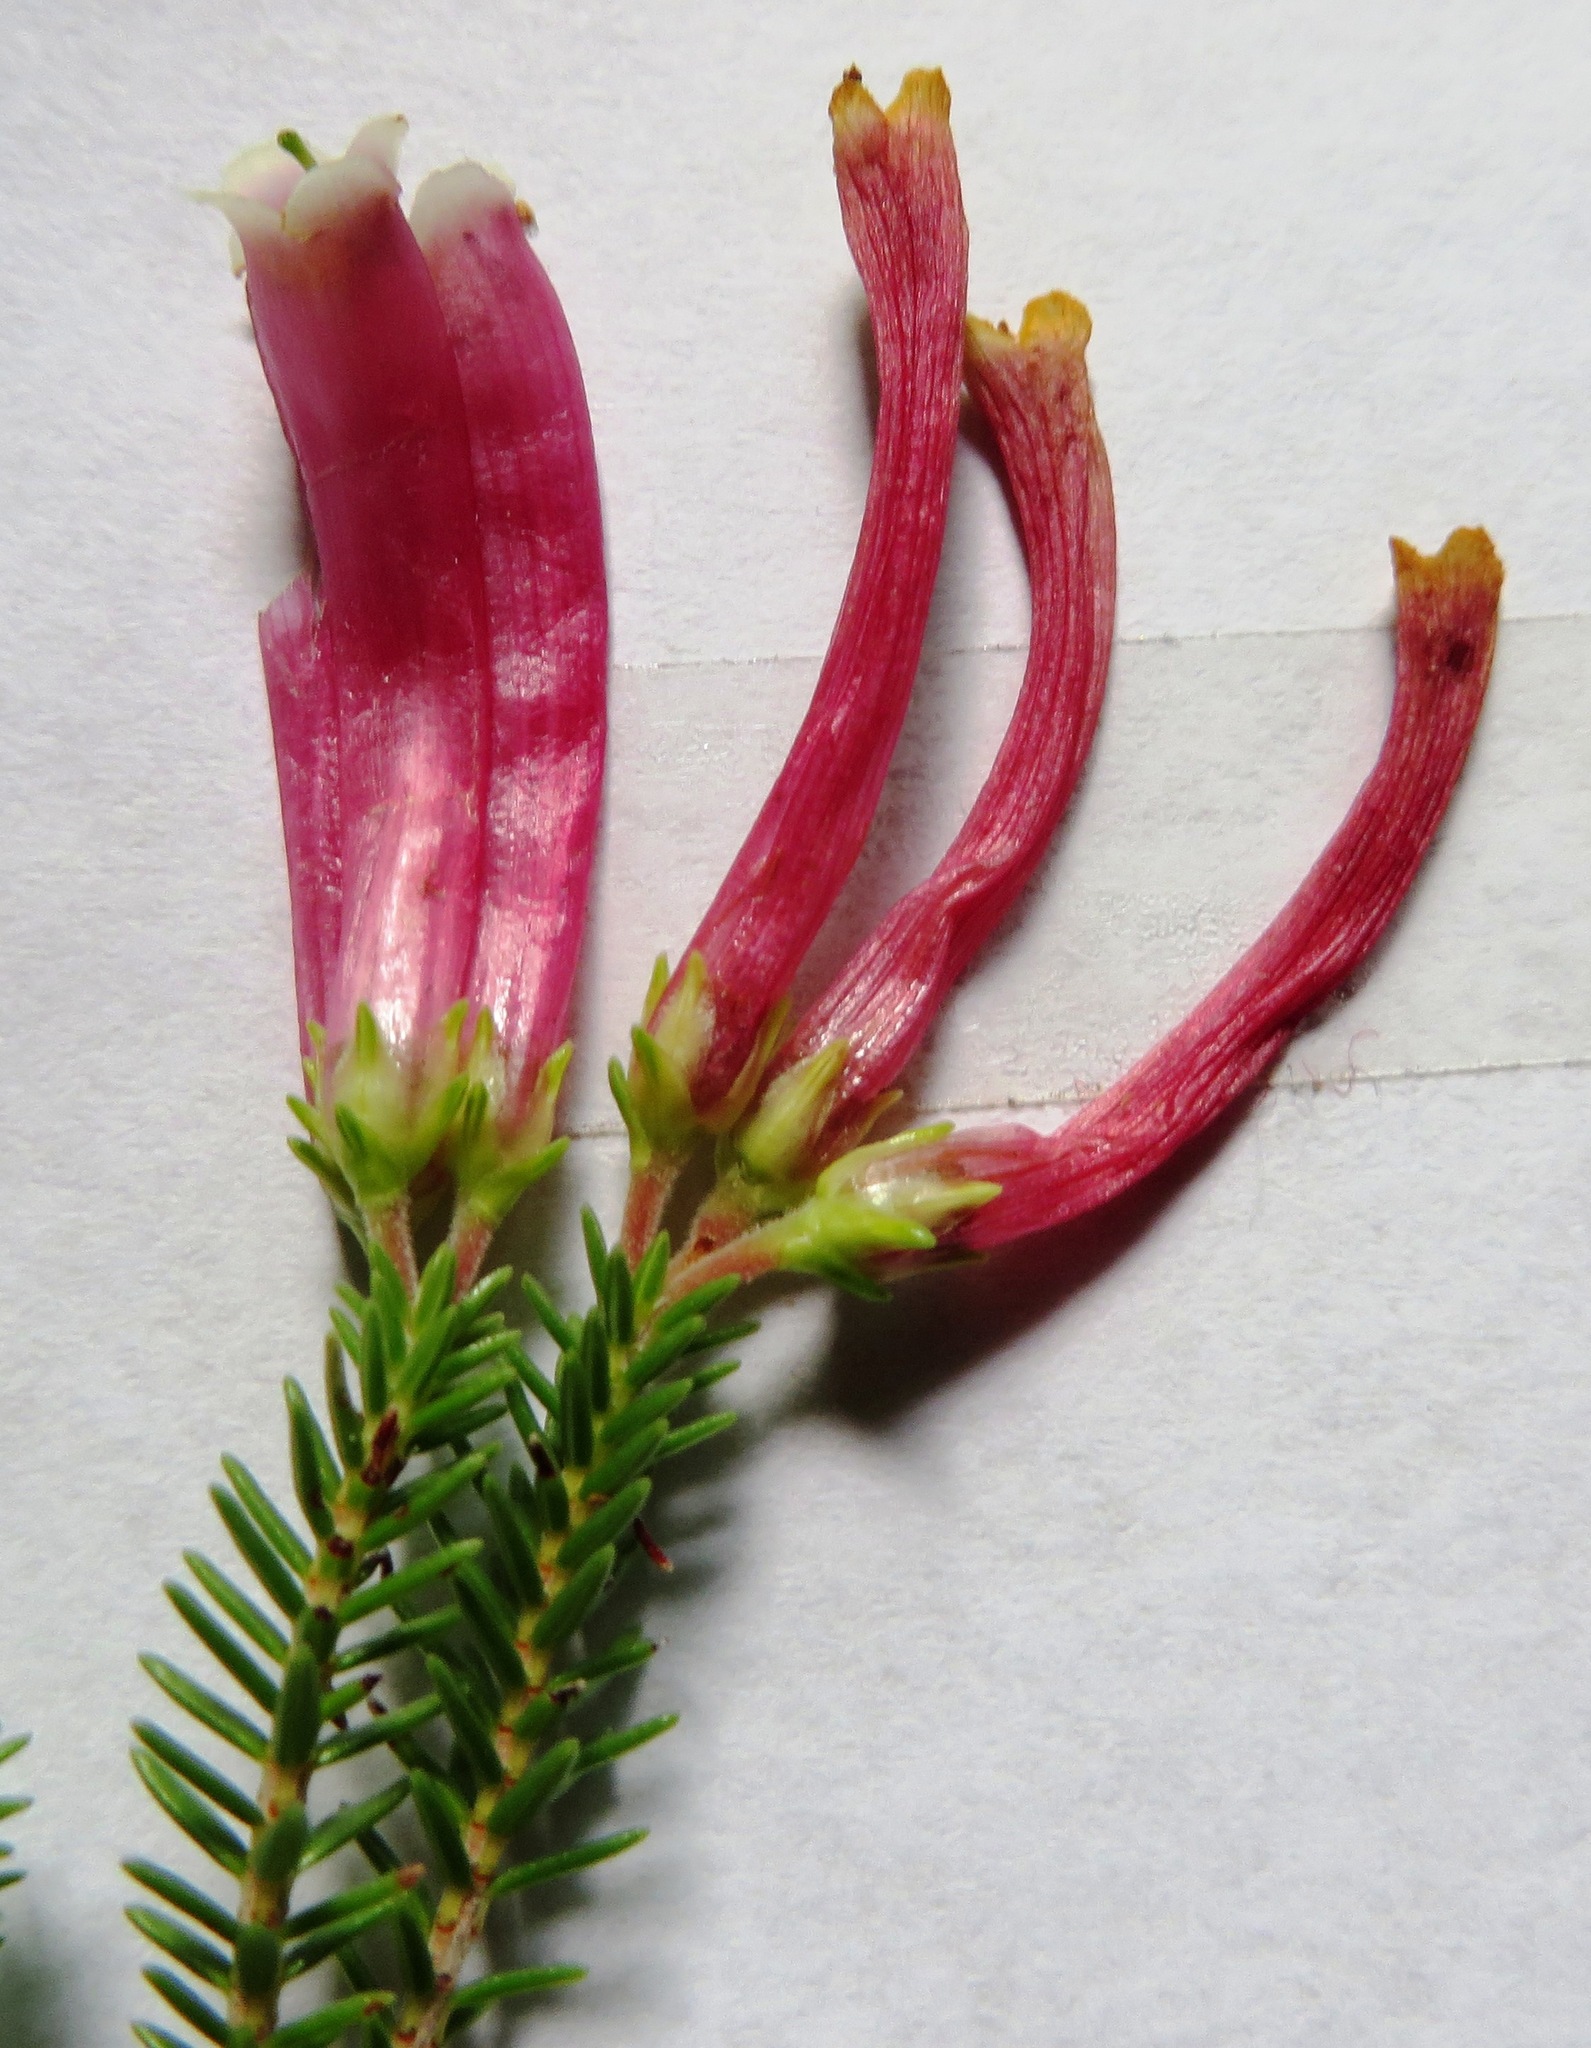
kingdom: Plantae
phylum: Tracheophyta
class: Magnoliopsida
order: Ericales
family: Ericaceae
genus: Erica
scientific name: Erica discolor
